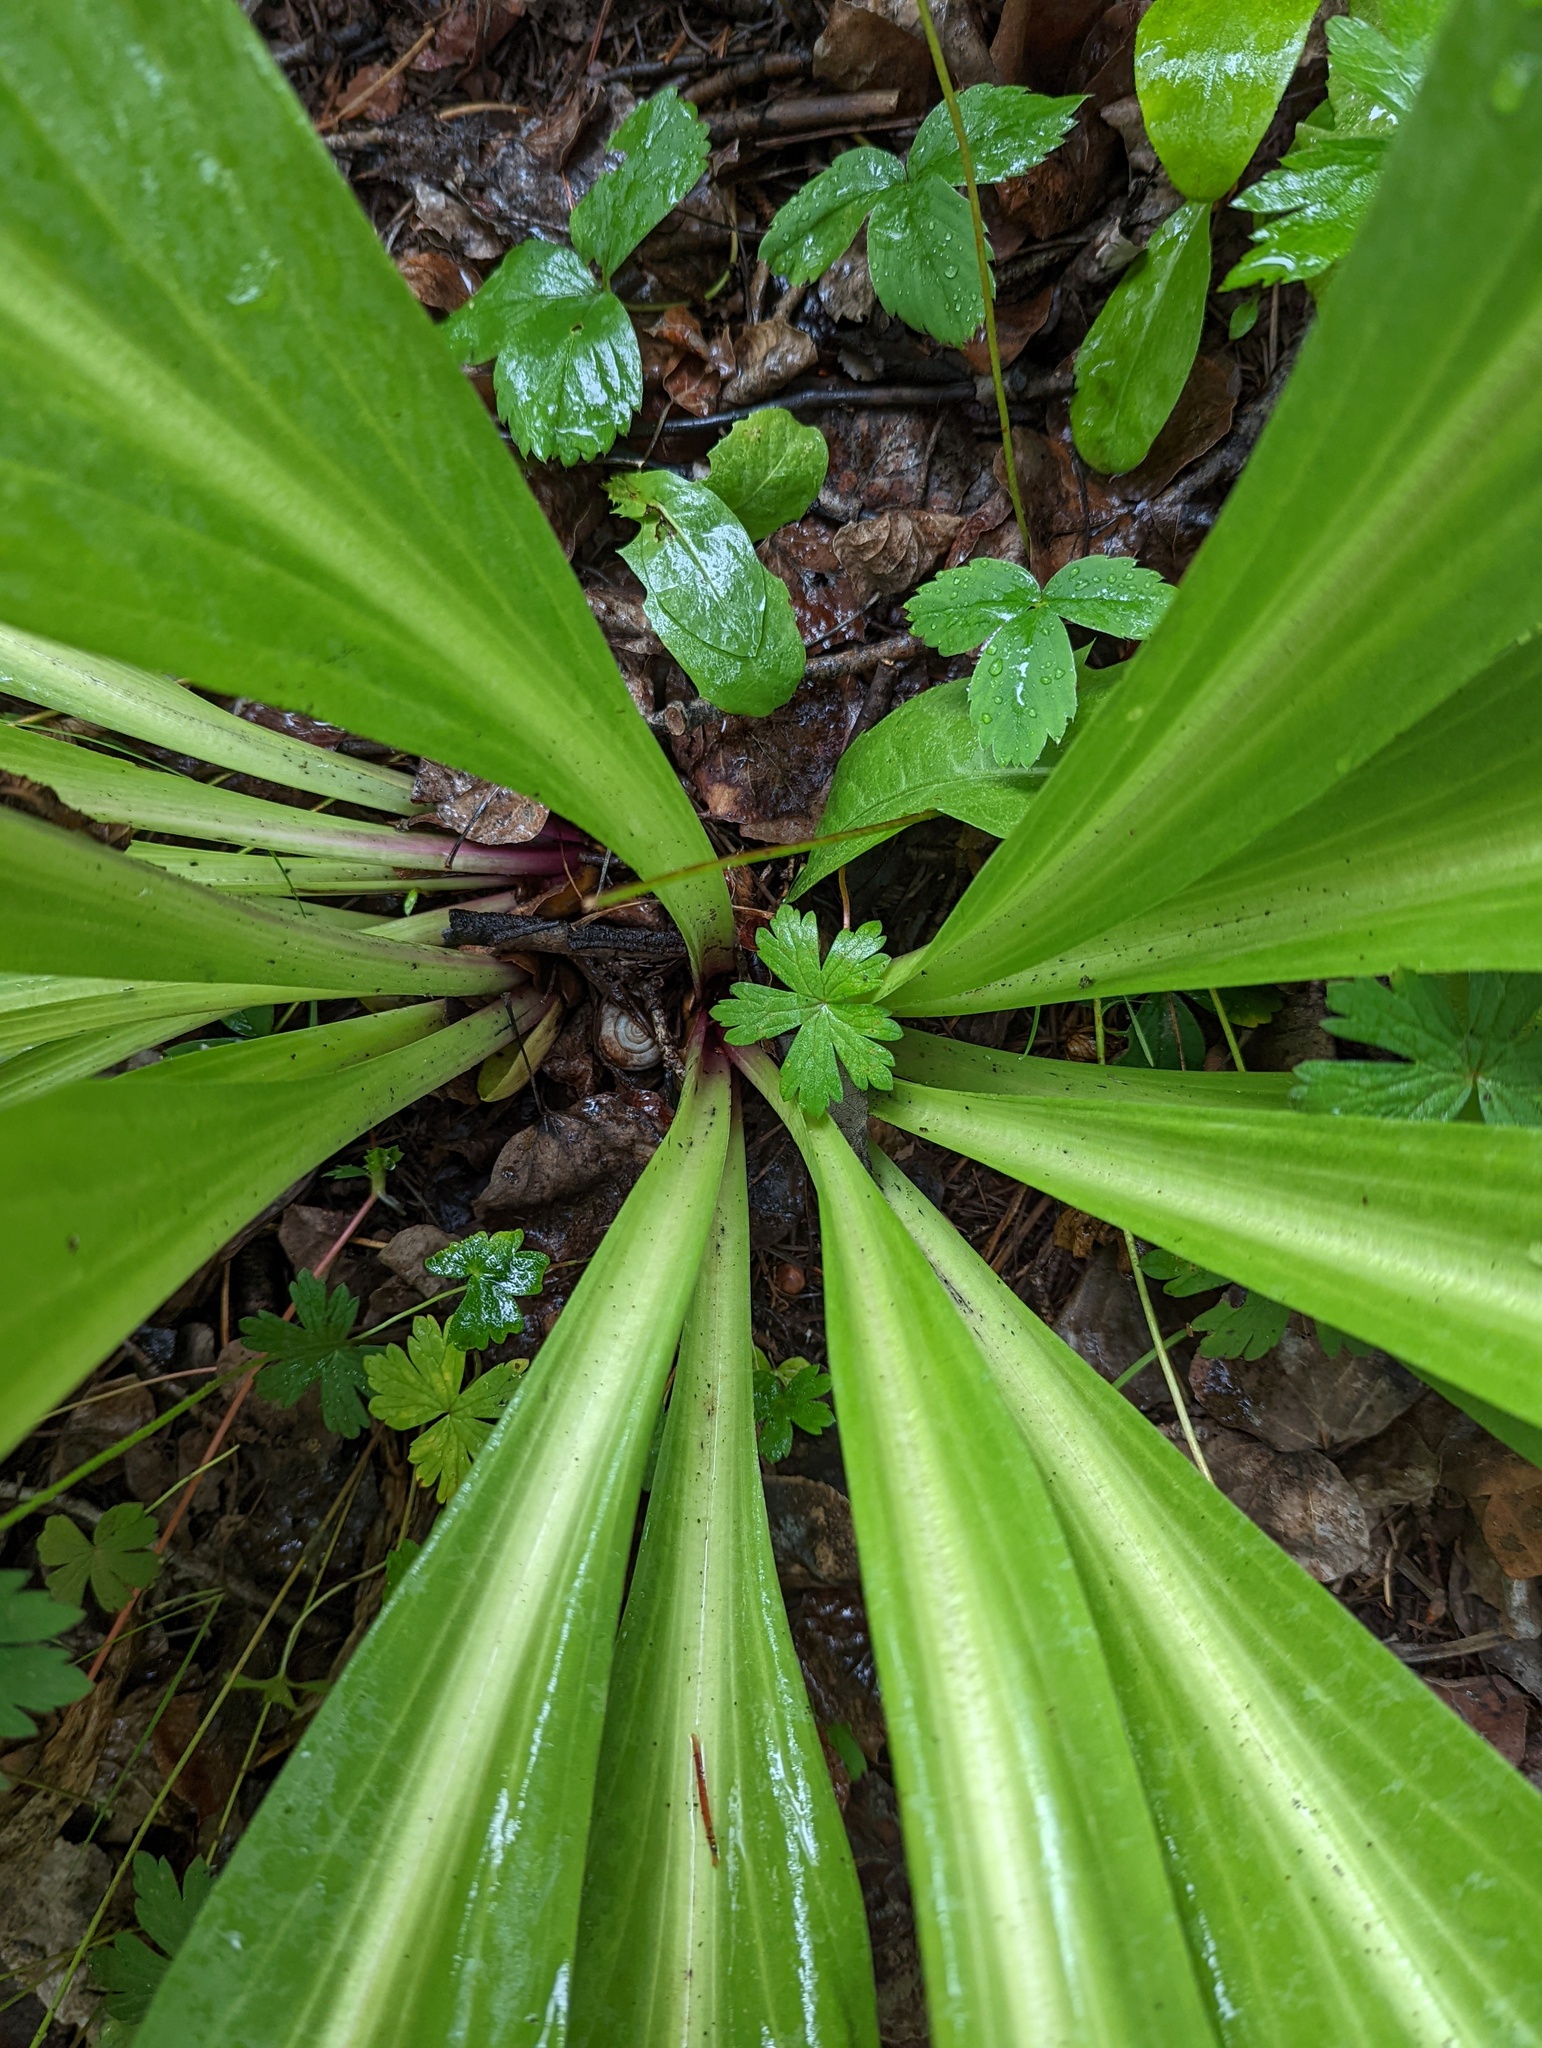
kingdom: Plantae
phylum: Tracheophyta
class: Magnoliopsida
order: Gentianales
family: Gentianaceae
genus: Frasera
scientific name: Frasera speciosa
